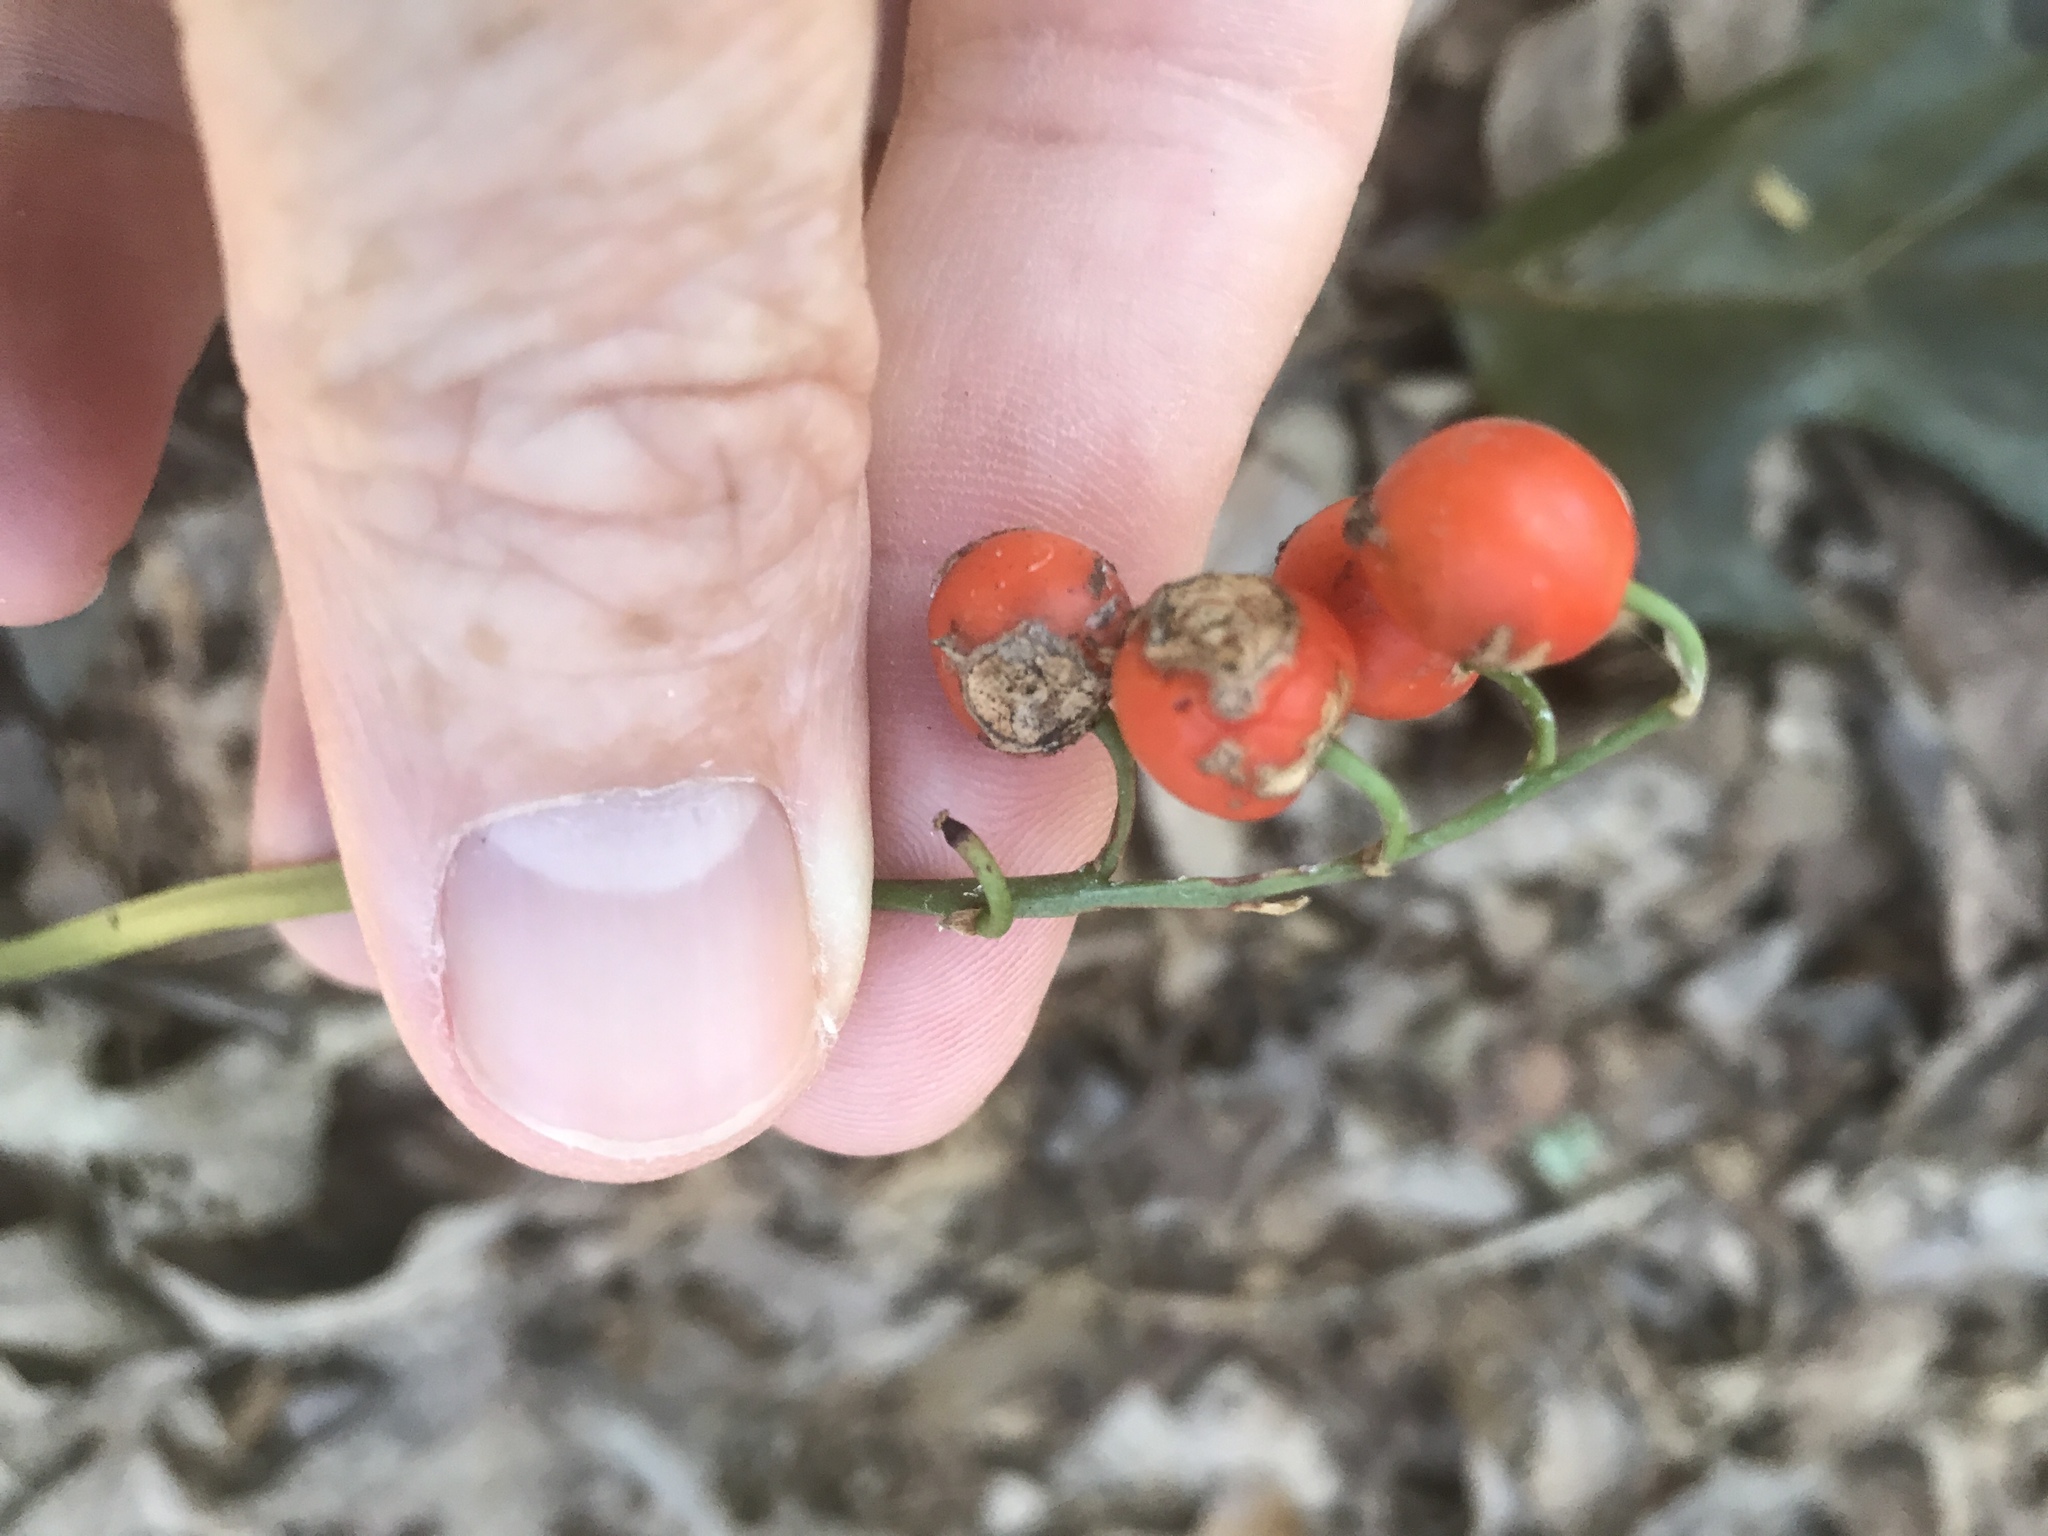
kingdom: Plantae
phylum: Tracheophyta
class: Liliopsida
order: Asparagales
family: Asparagaceae
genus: Convallaria
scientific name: Convallaria majalis
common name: Lily-of-the-valley
